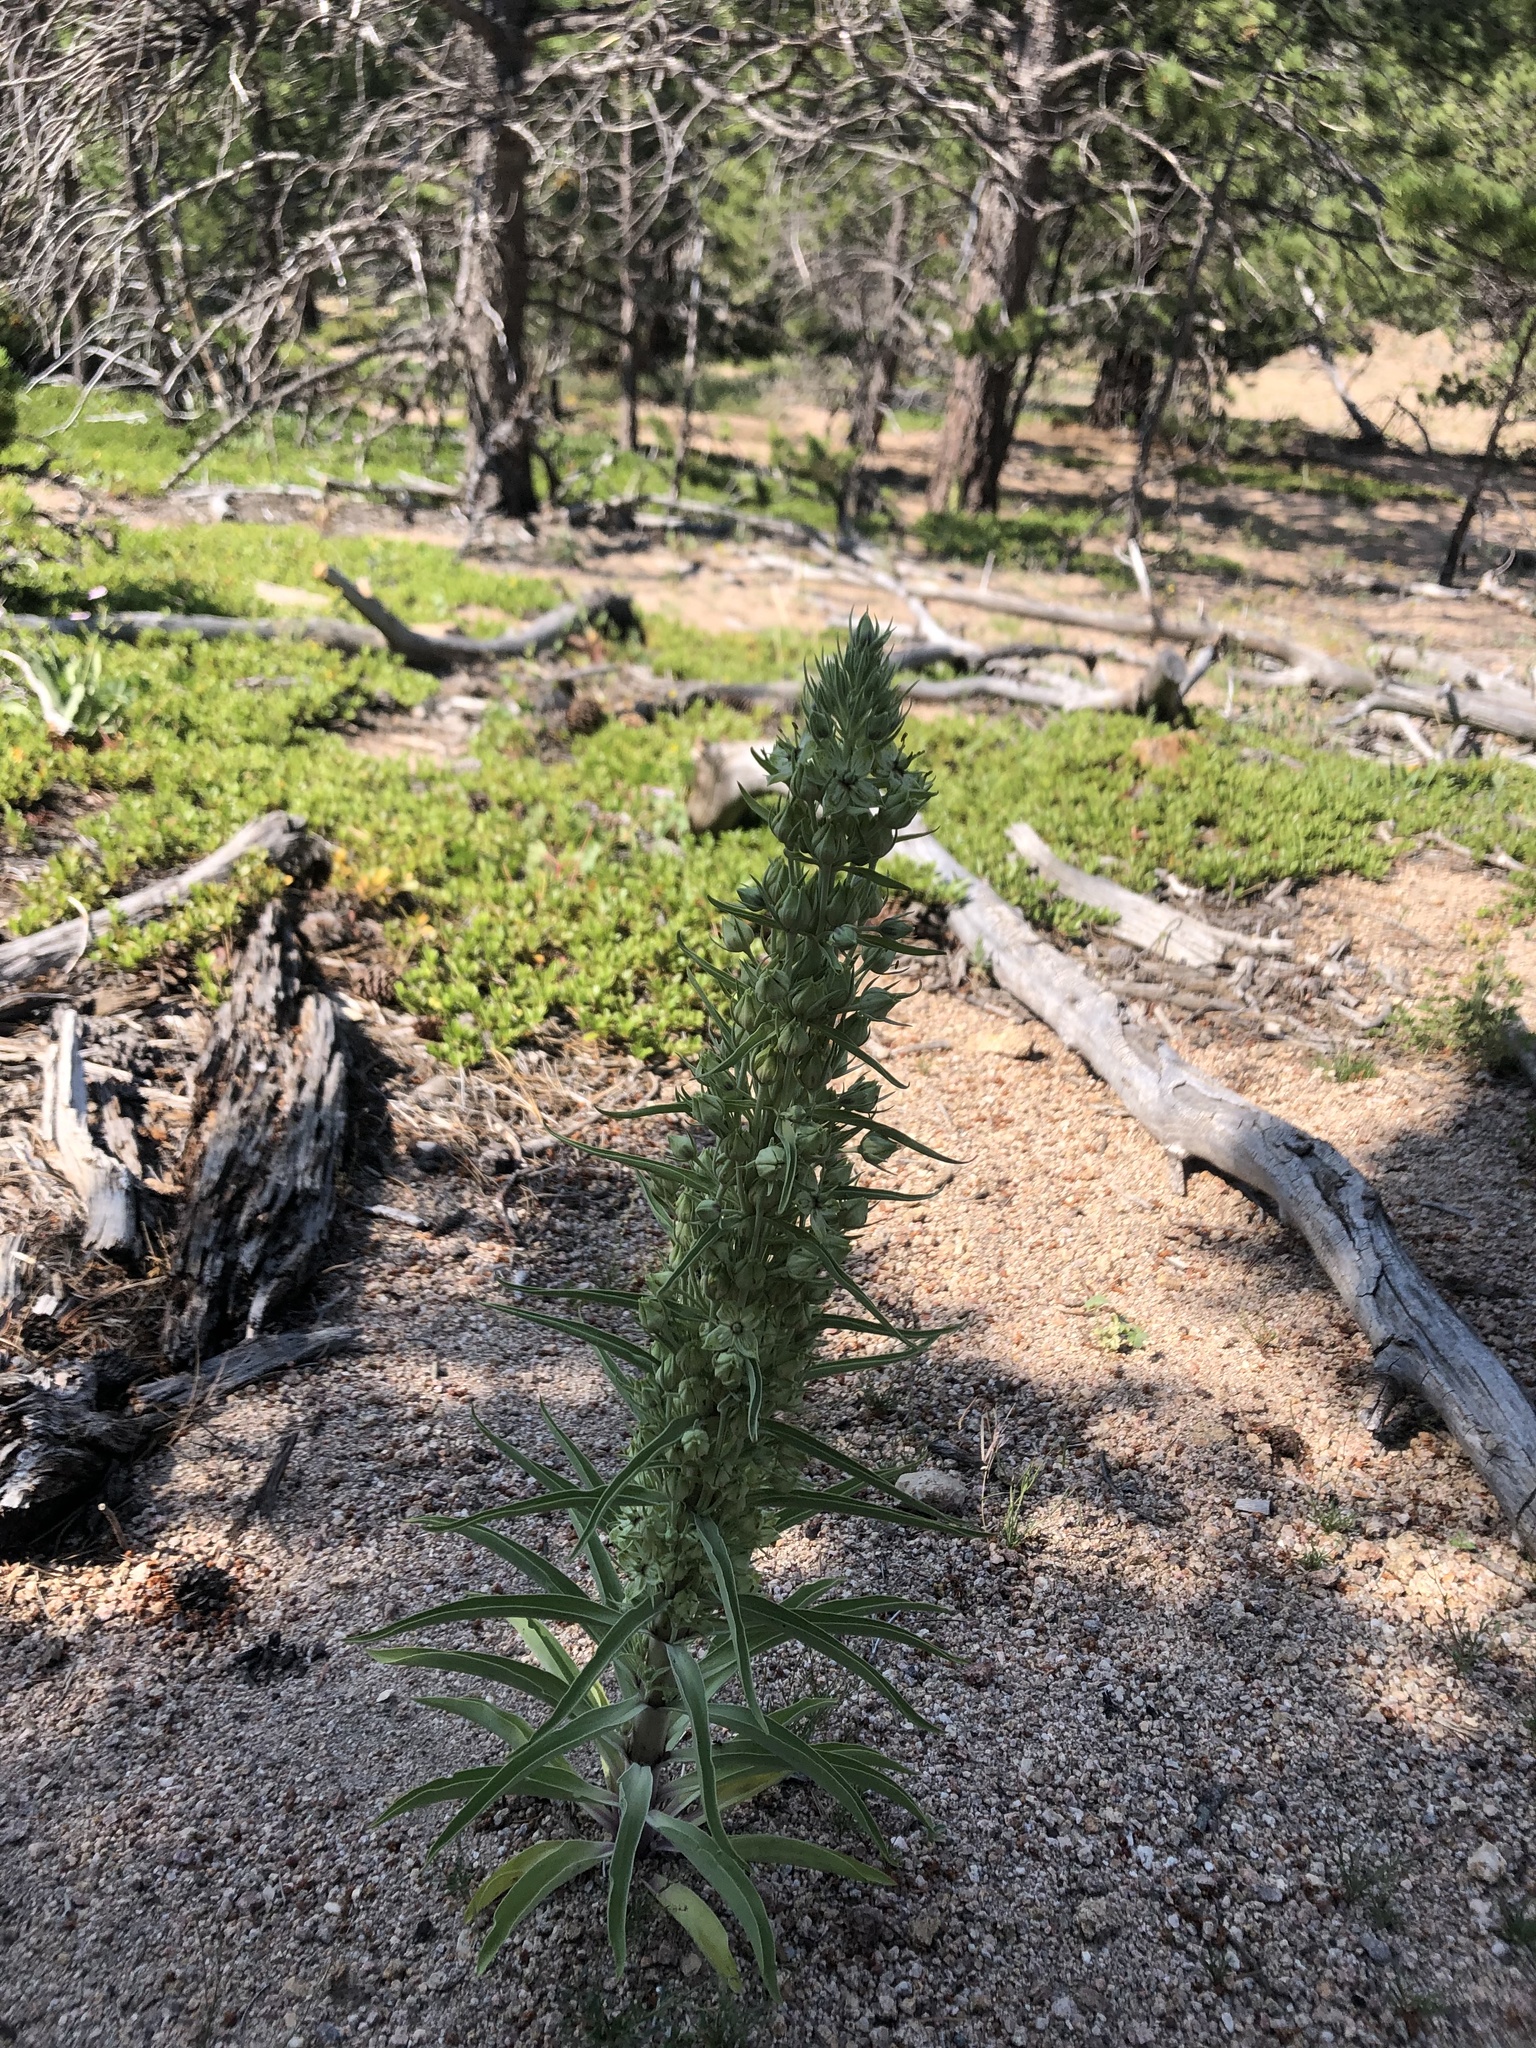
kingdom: Plantae
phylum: Tracheophyta
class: Magnoliopsida
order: Gentianales
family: Gentianaceae
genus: Frasera
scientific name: Frasera speciosa
